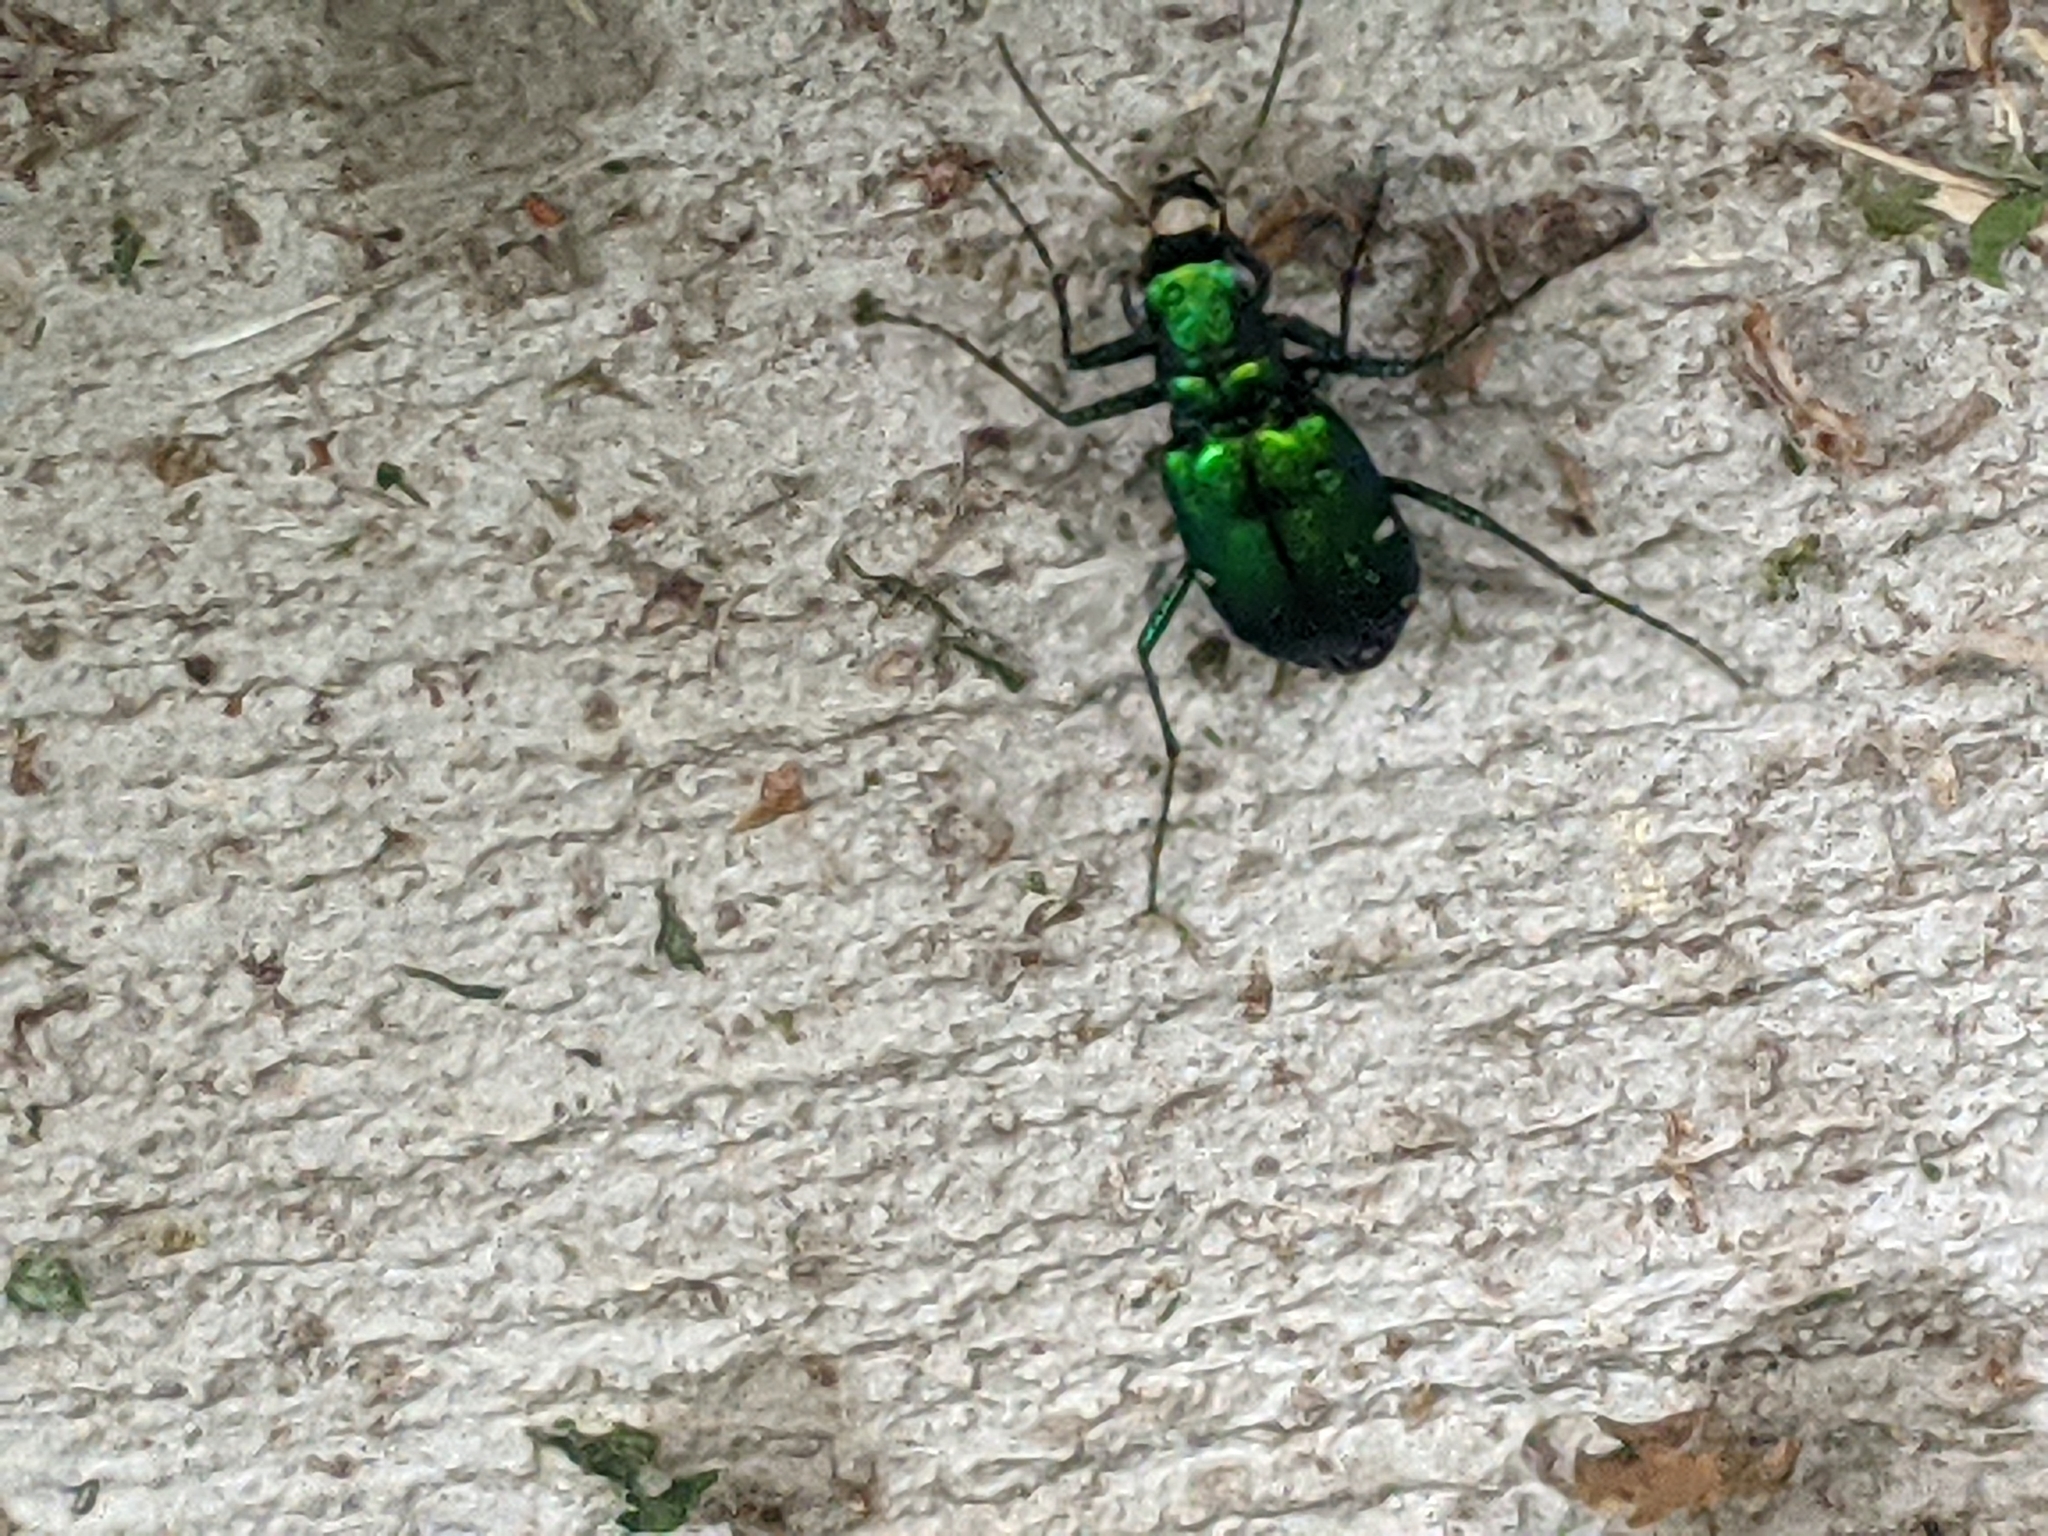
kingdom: Animalia
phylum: Arthropoda
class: Insecta
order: Coleoptera
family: Carabidae
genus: Cicindela
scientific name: Cicindela sexguttata
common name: Six-spotted tiger beetle
